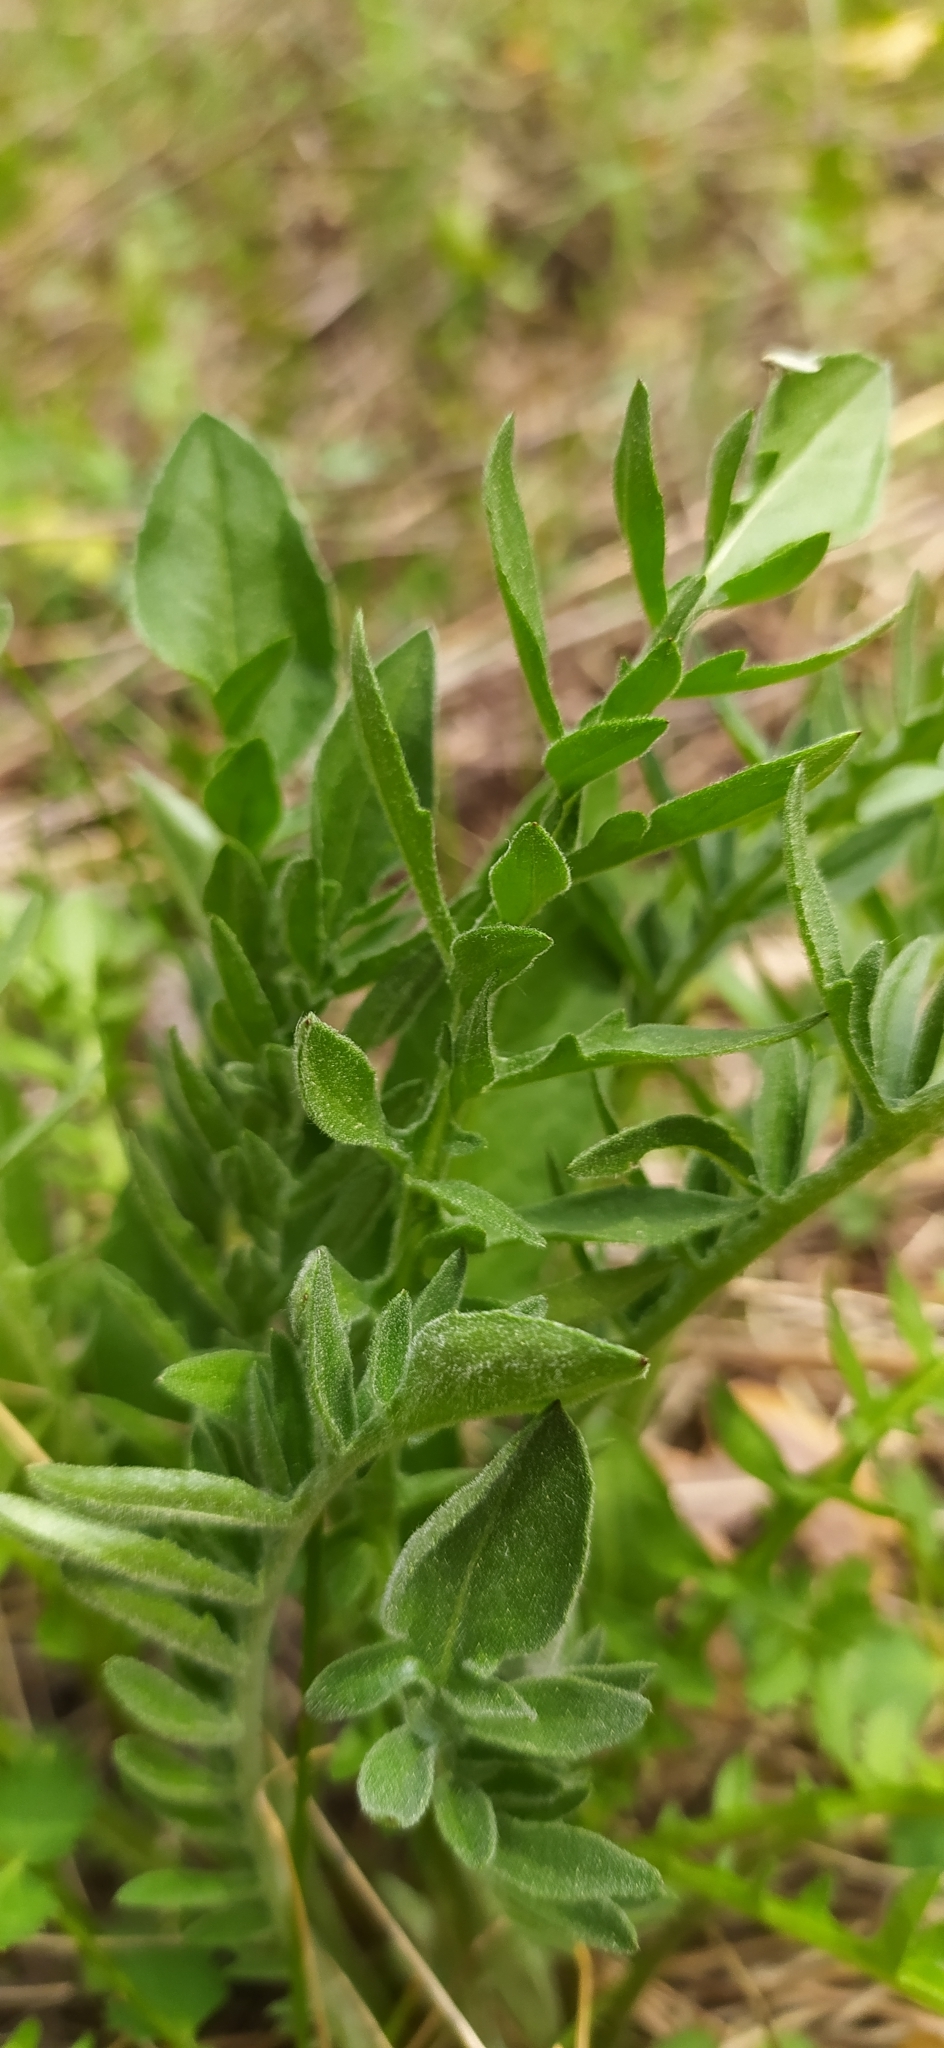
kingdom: Plantae
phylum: Tracheophyta
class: Magnoliopsida
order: Asterales
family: Asteraceae
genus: Centaurea
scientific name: Centaurea scabiosa
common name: Greater knapweed
